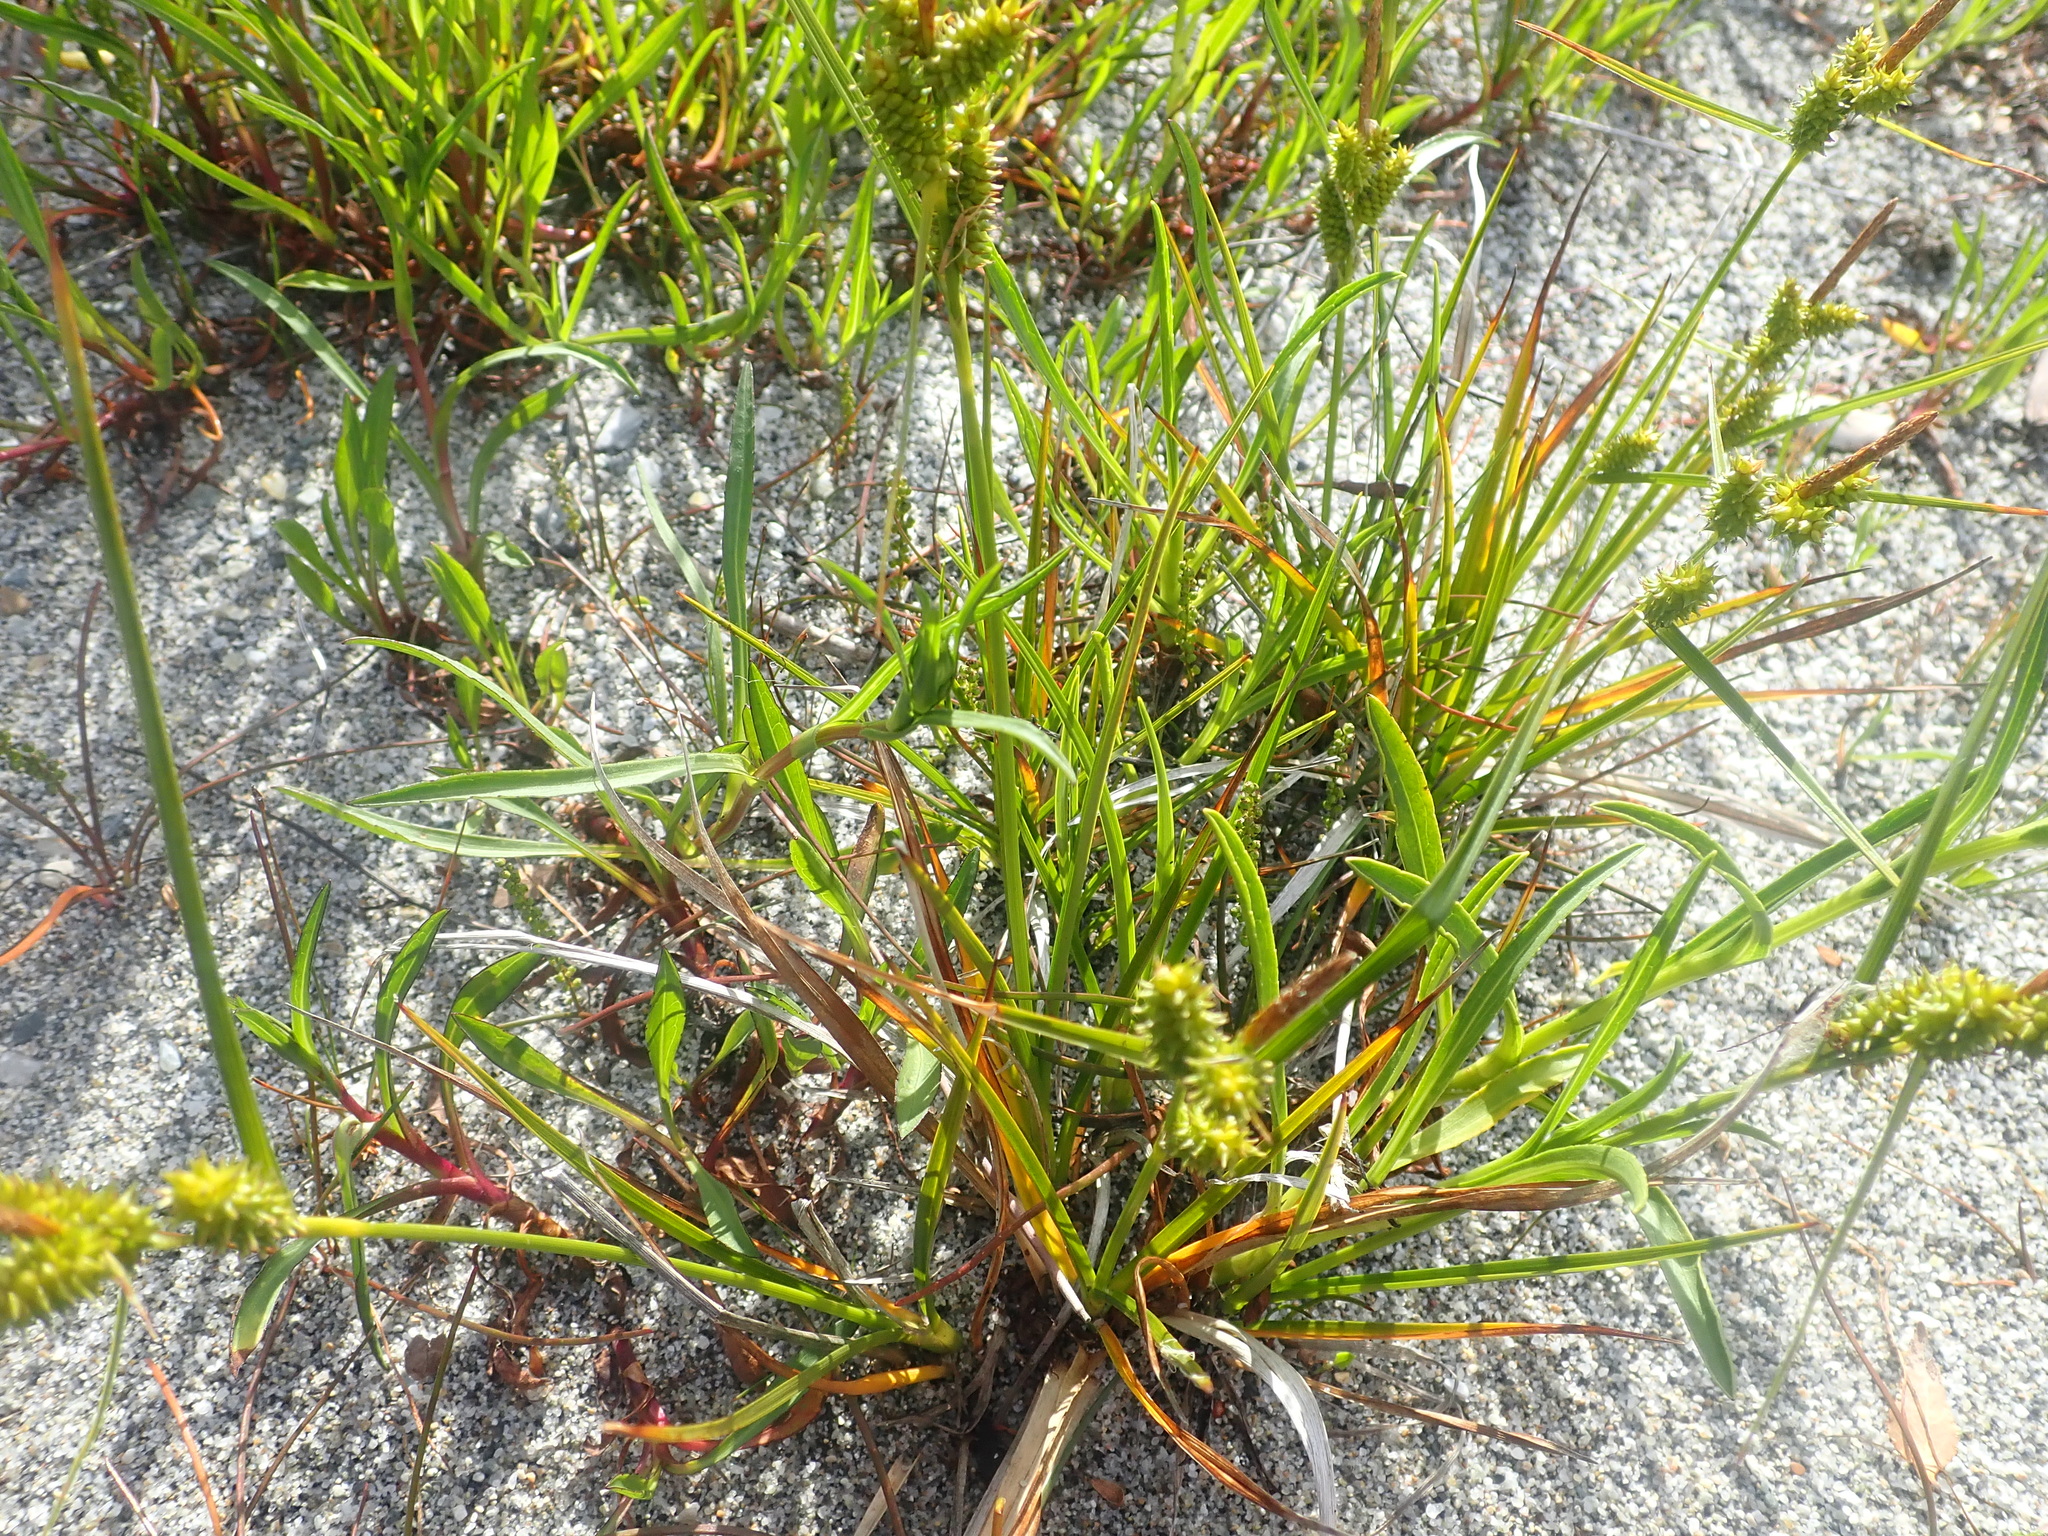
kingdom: Plantae
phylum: Tracheophyta
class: Liliopsida
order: Poales
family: Cyperaceae
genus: Carex
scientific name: Carex fuscula
